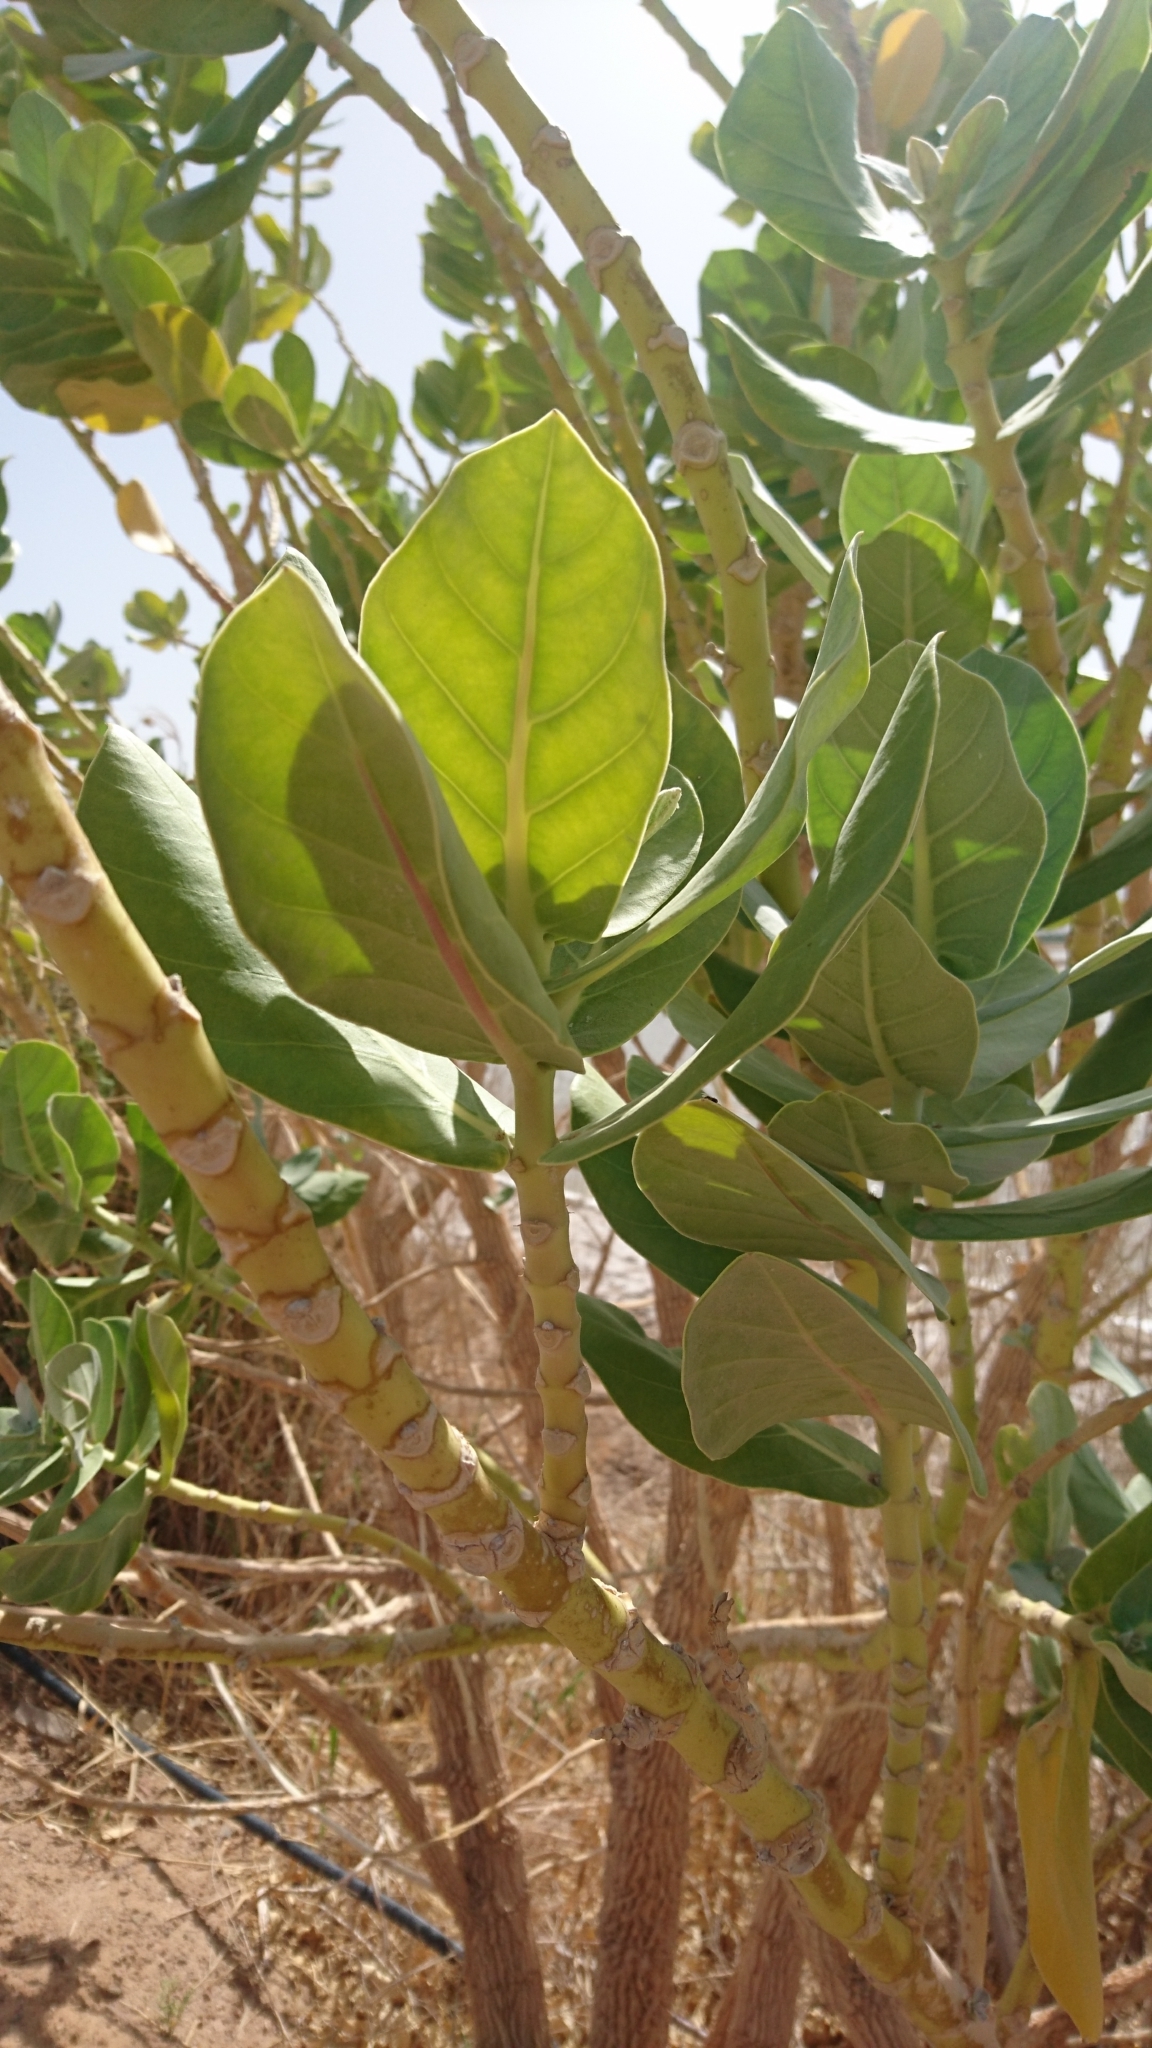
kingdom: Plantae
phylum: Tracheophyta
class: Magnoliopsida
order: Gentianales
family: Apocynaceae
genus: Calotropis
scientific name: Calotropis procera
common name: Roostertree
